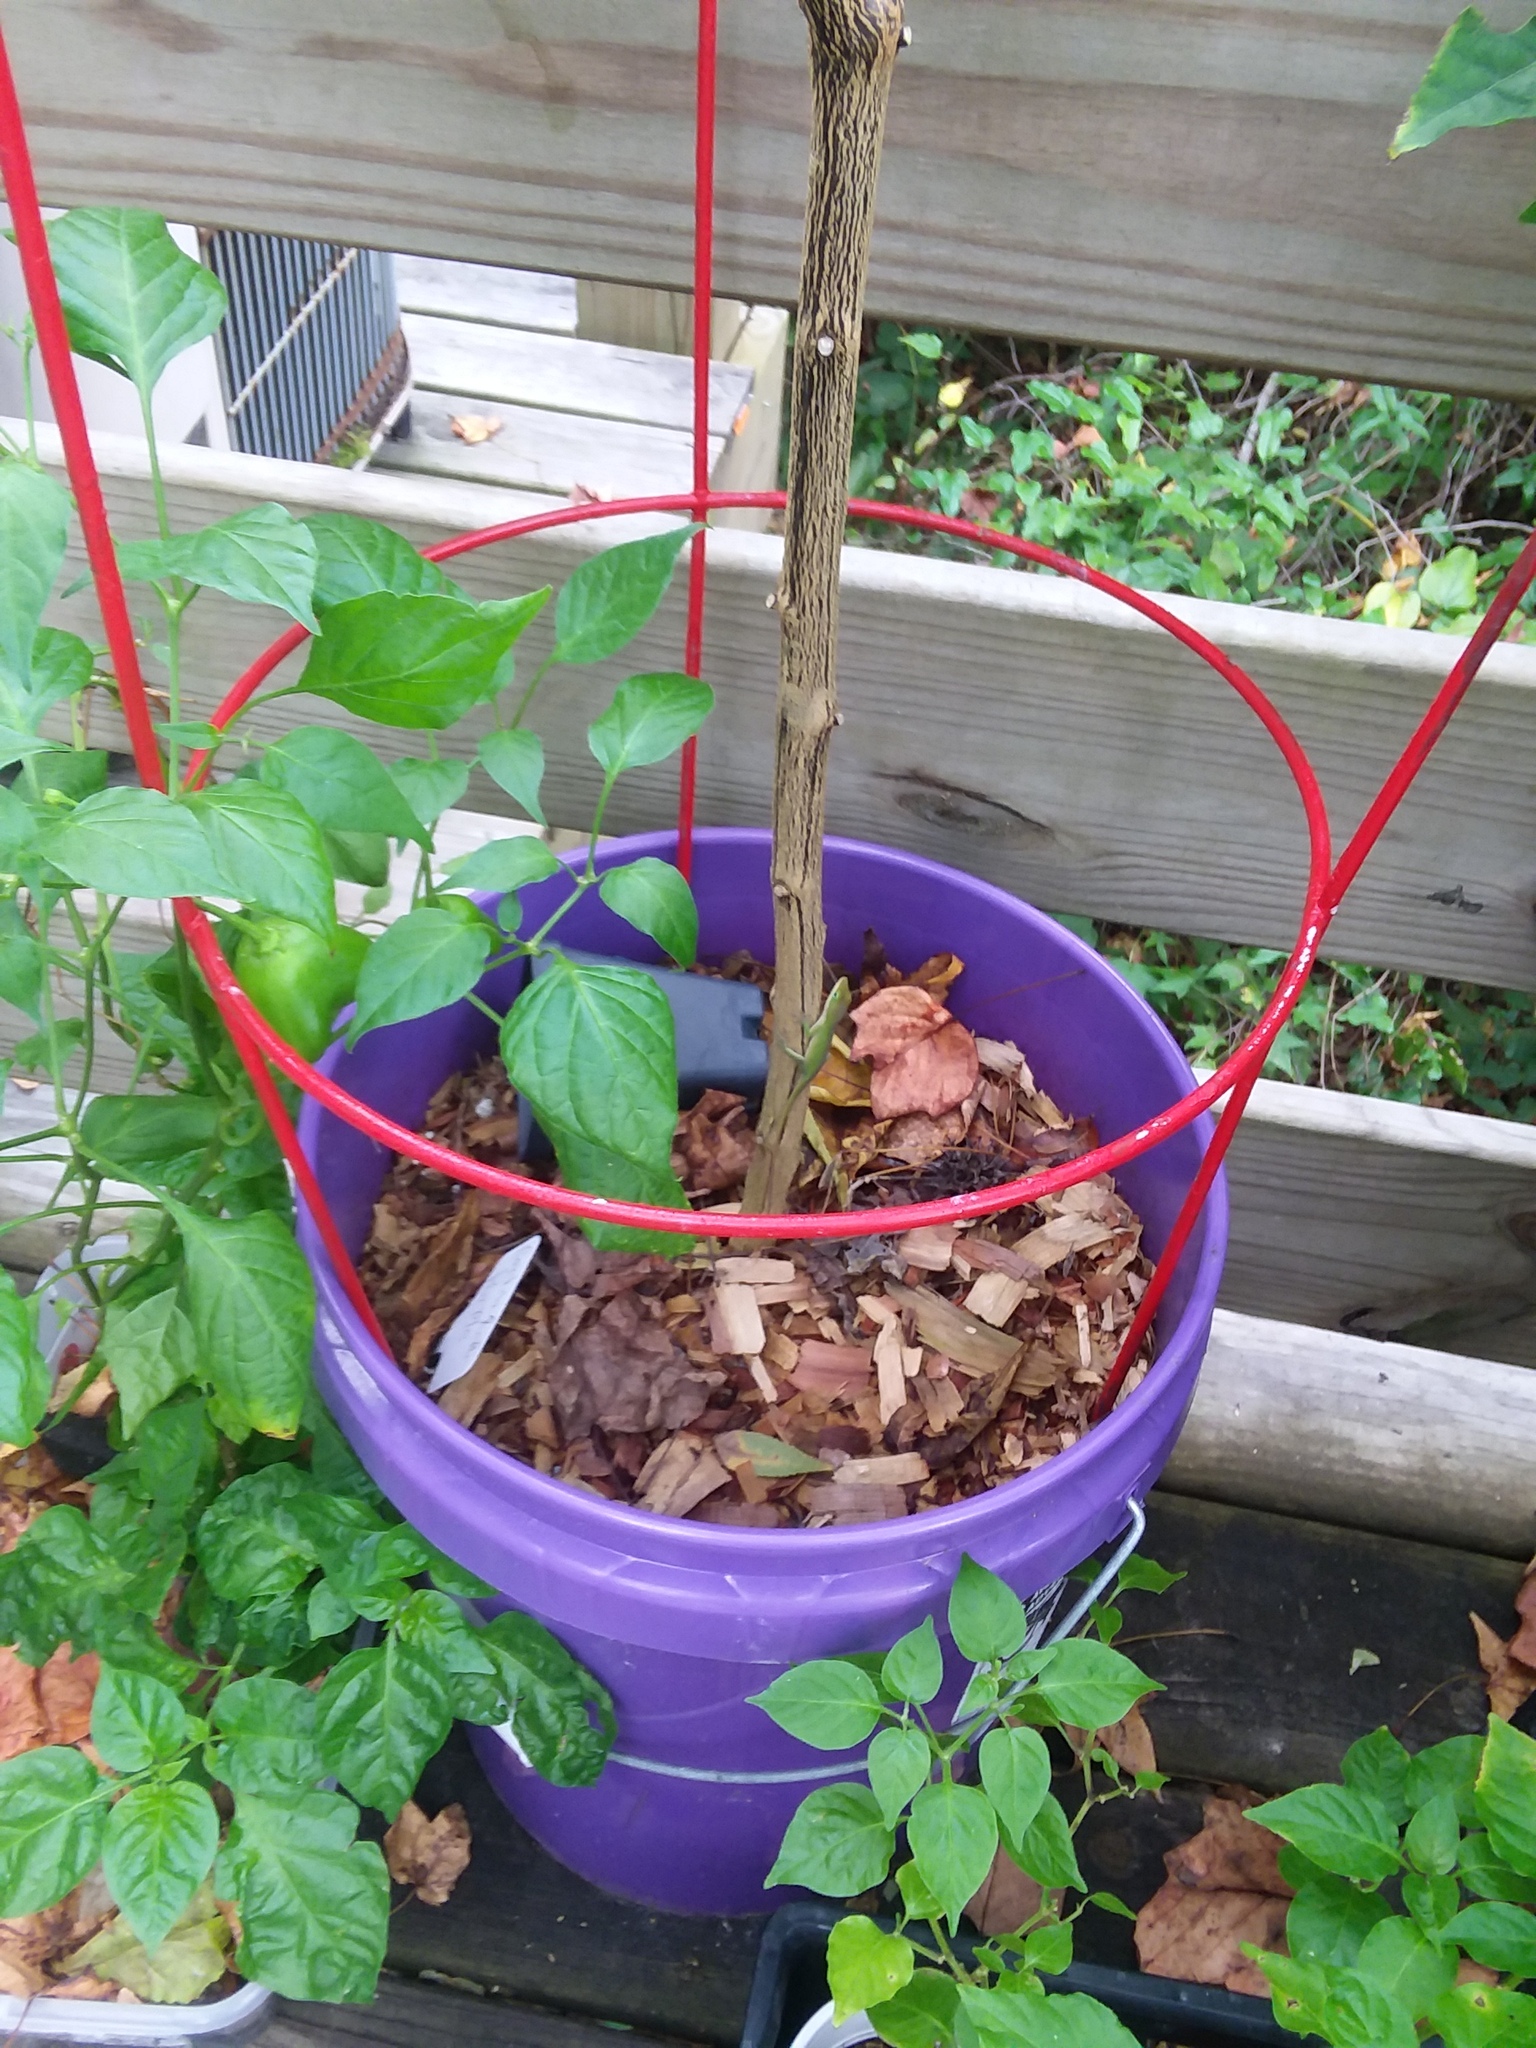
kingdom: Animalia
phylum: Chordata
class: Squamata
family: Dactyloidae
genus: Anolis
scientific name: Anolis carolinensis
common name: Green anole
